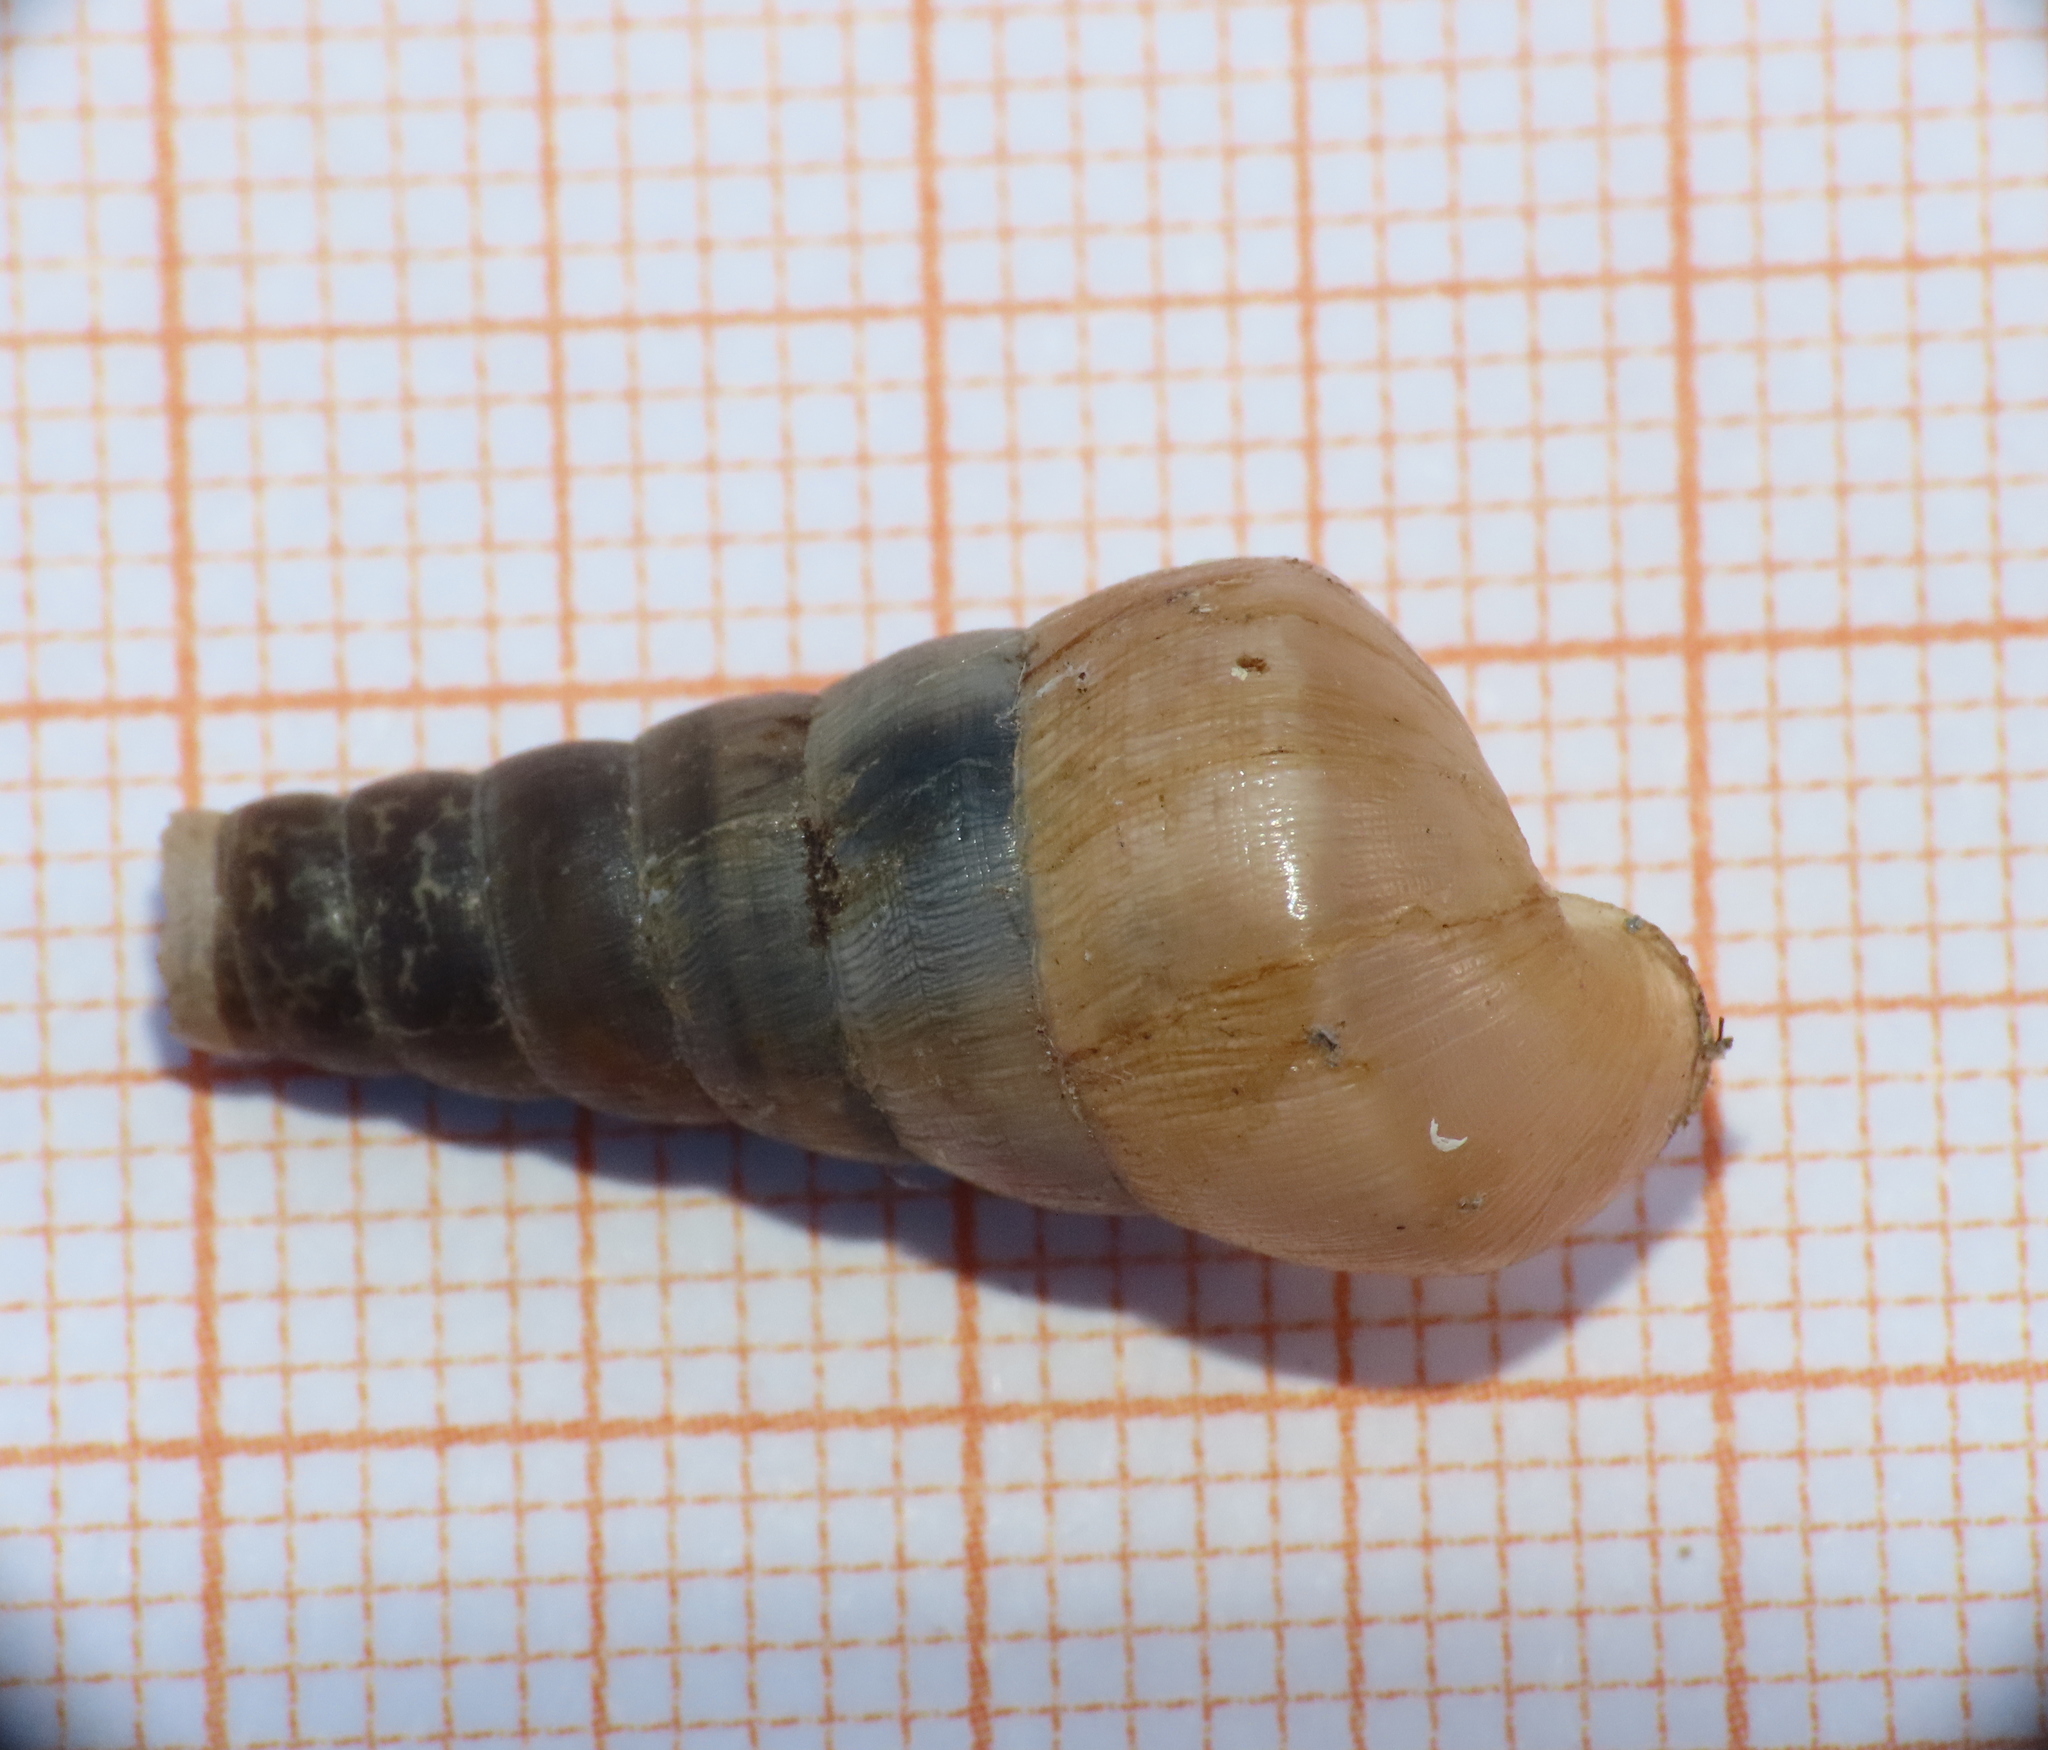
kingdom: Animalia
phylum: Mollusca
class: Gastropoda
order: Stylommatophora
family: Achatinidae
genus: Rumina
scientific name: Rumina decollata
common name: Decollate snail
